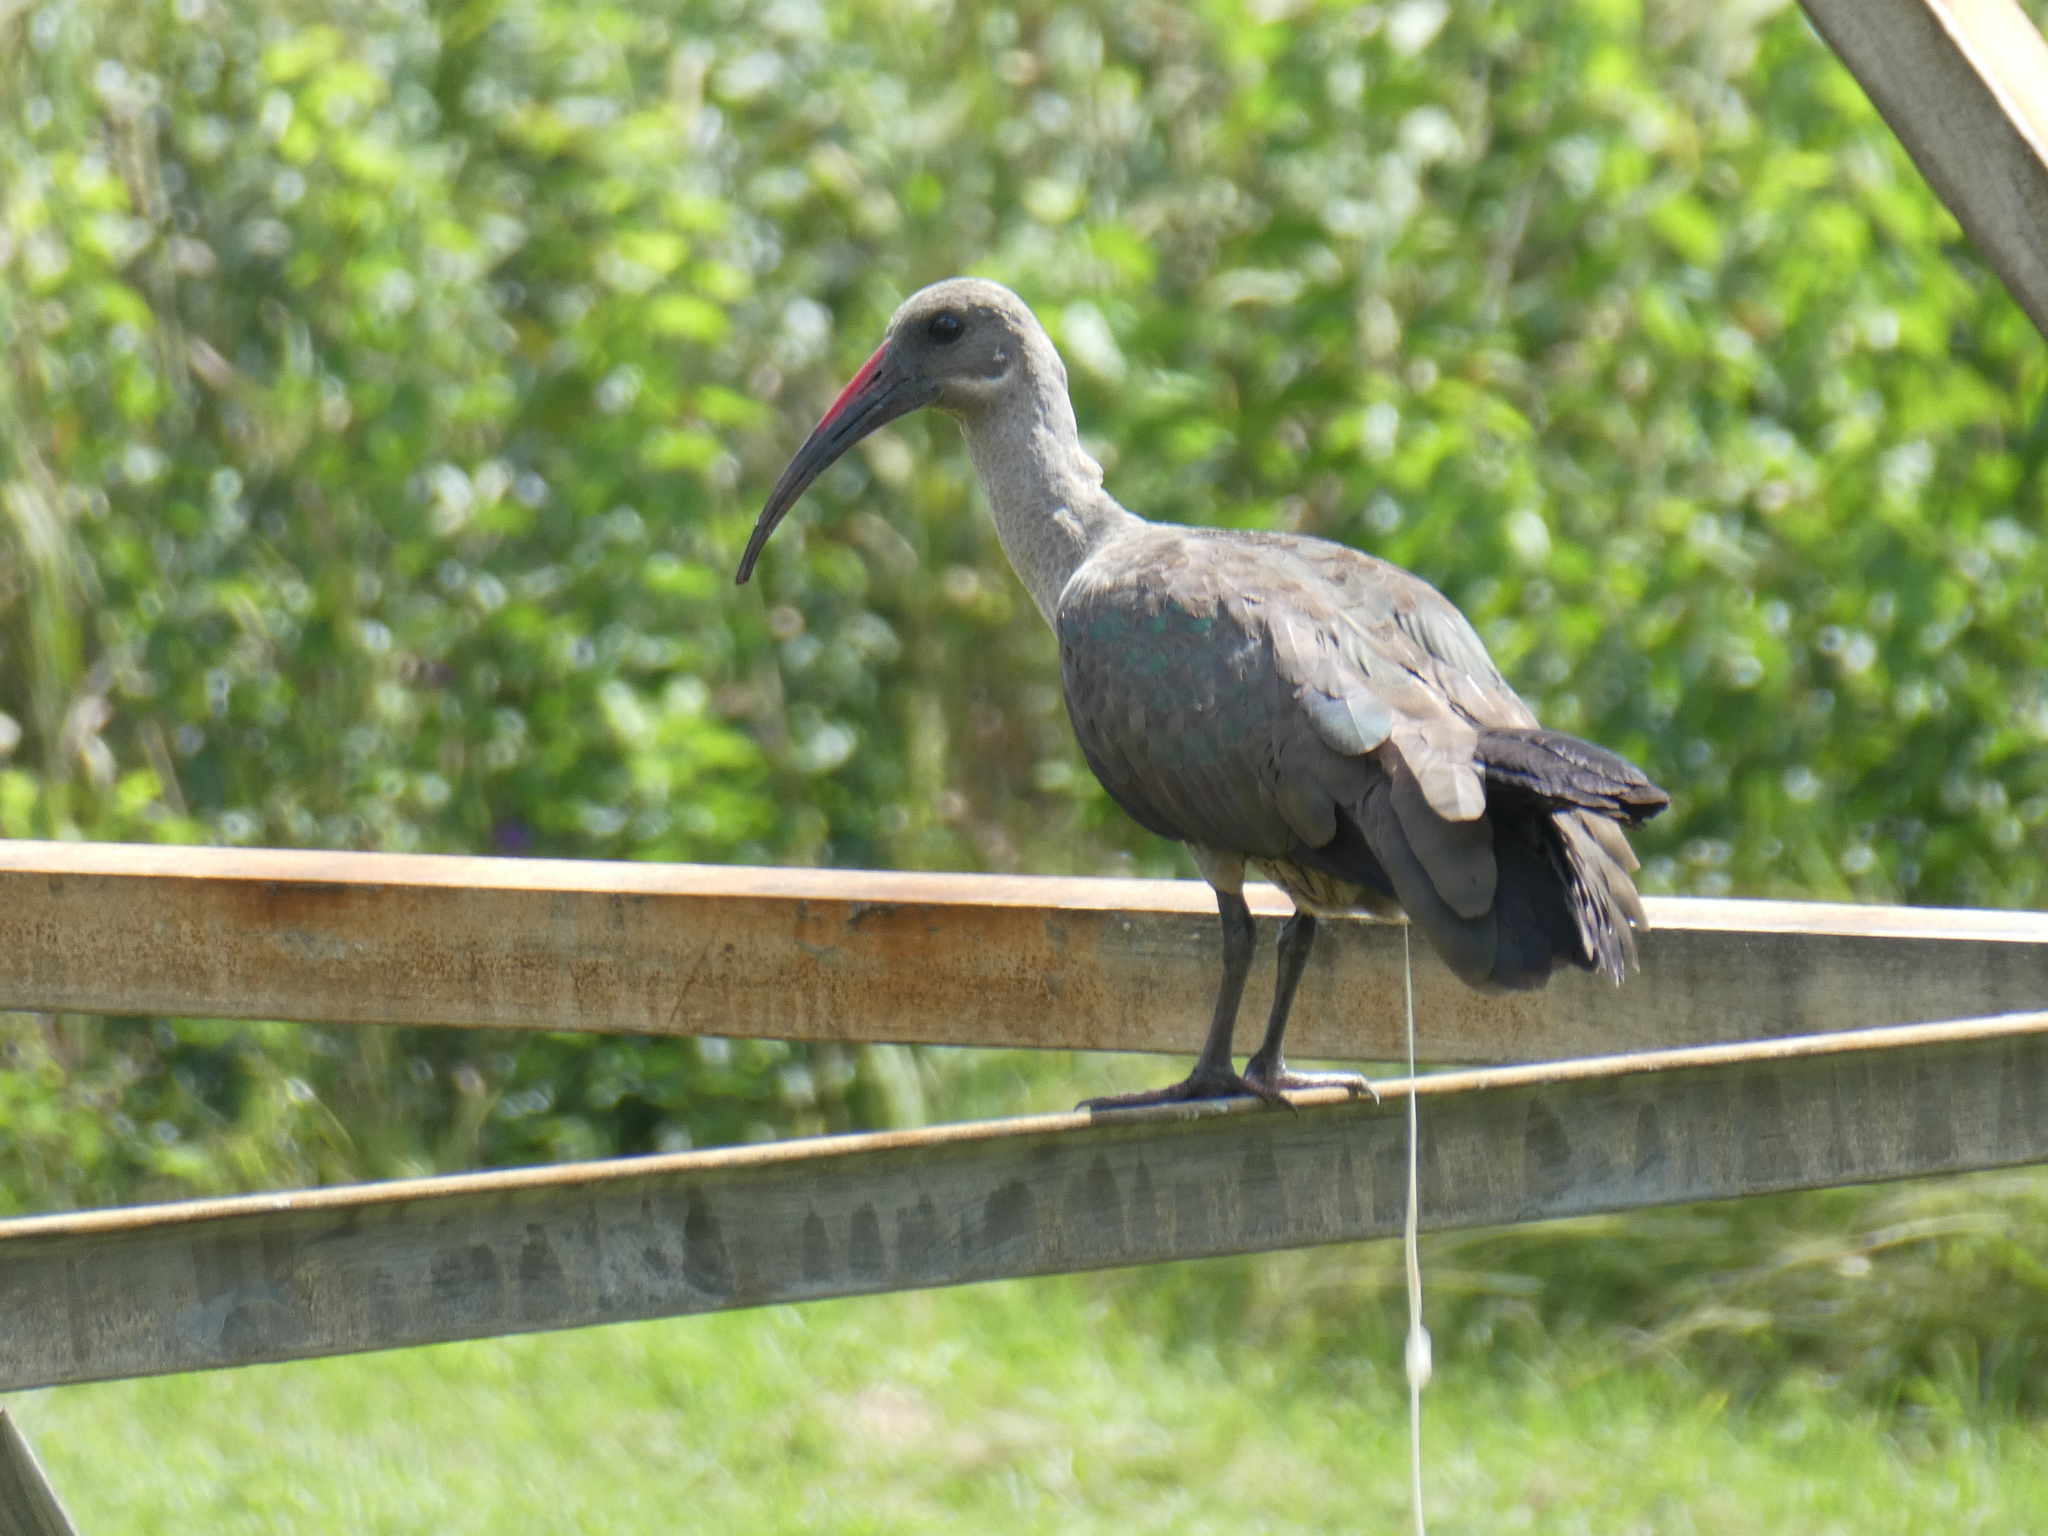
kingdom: Animalia
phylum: Chordata
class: Aves
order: Pelecaniformes
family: Threskiornithidae
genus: Bostrychia
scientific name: Bostrychia hagedash
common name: Hadada ibis
